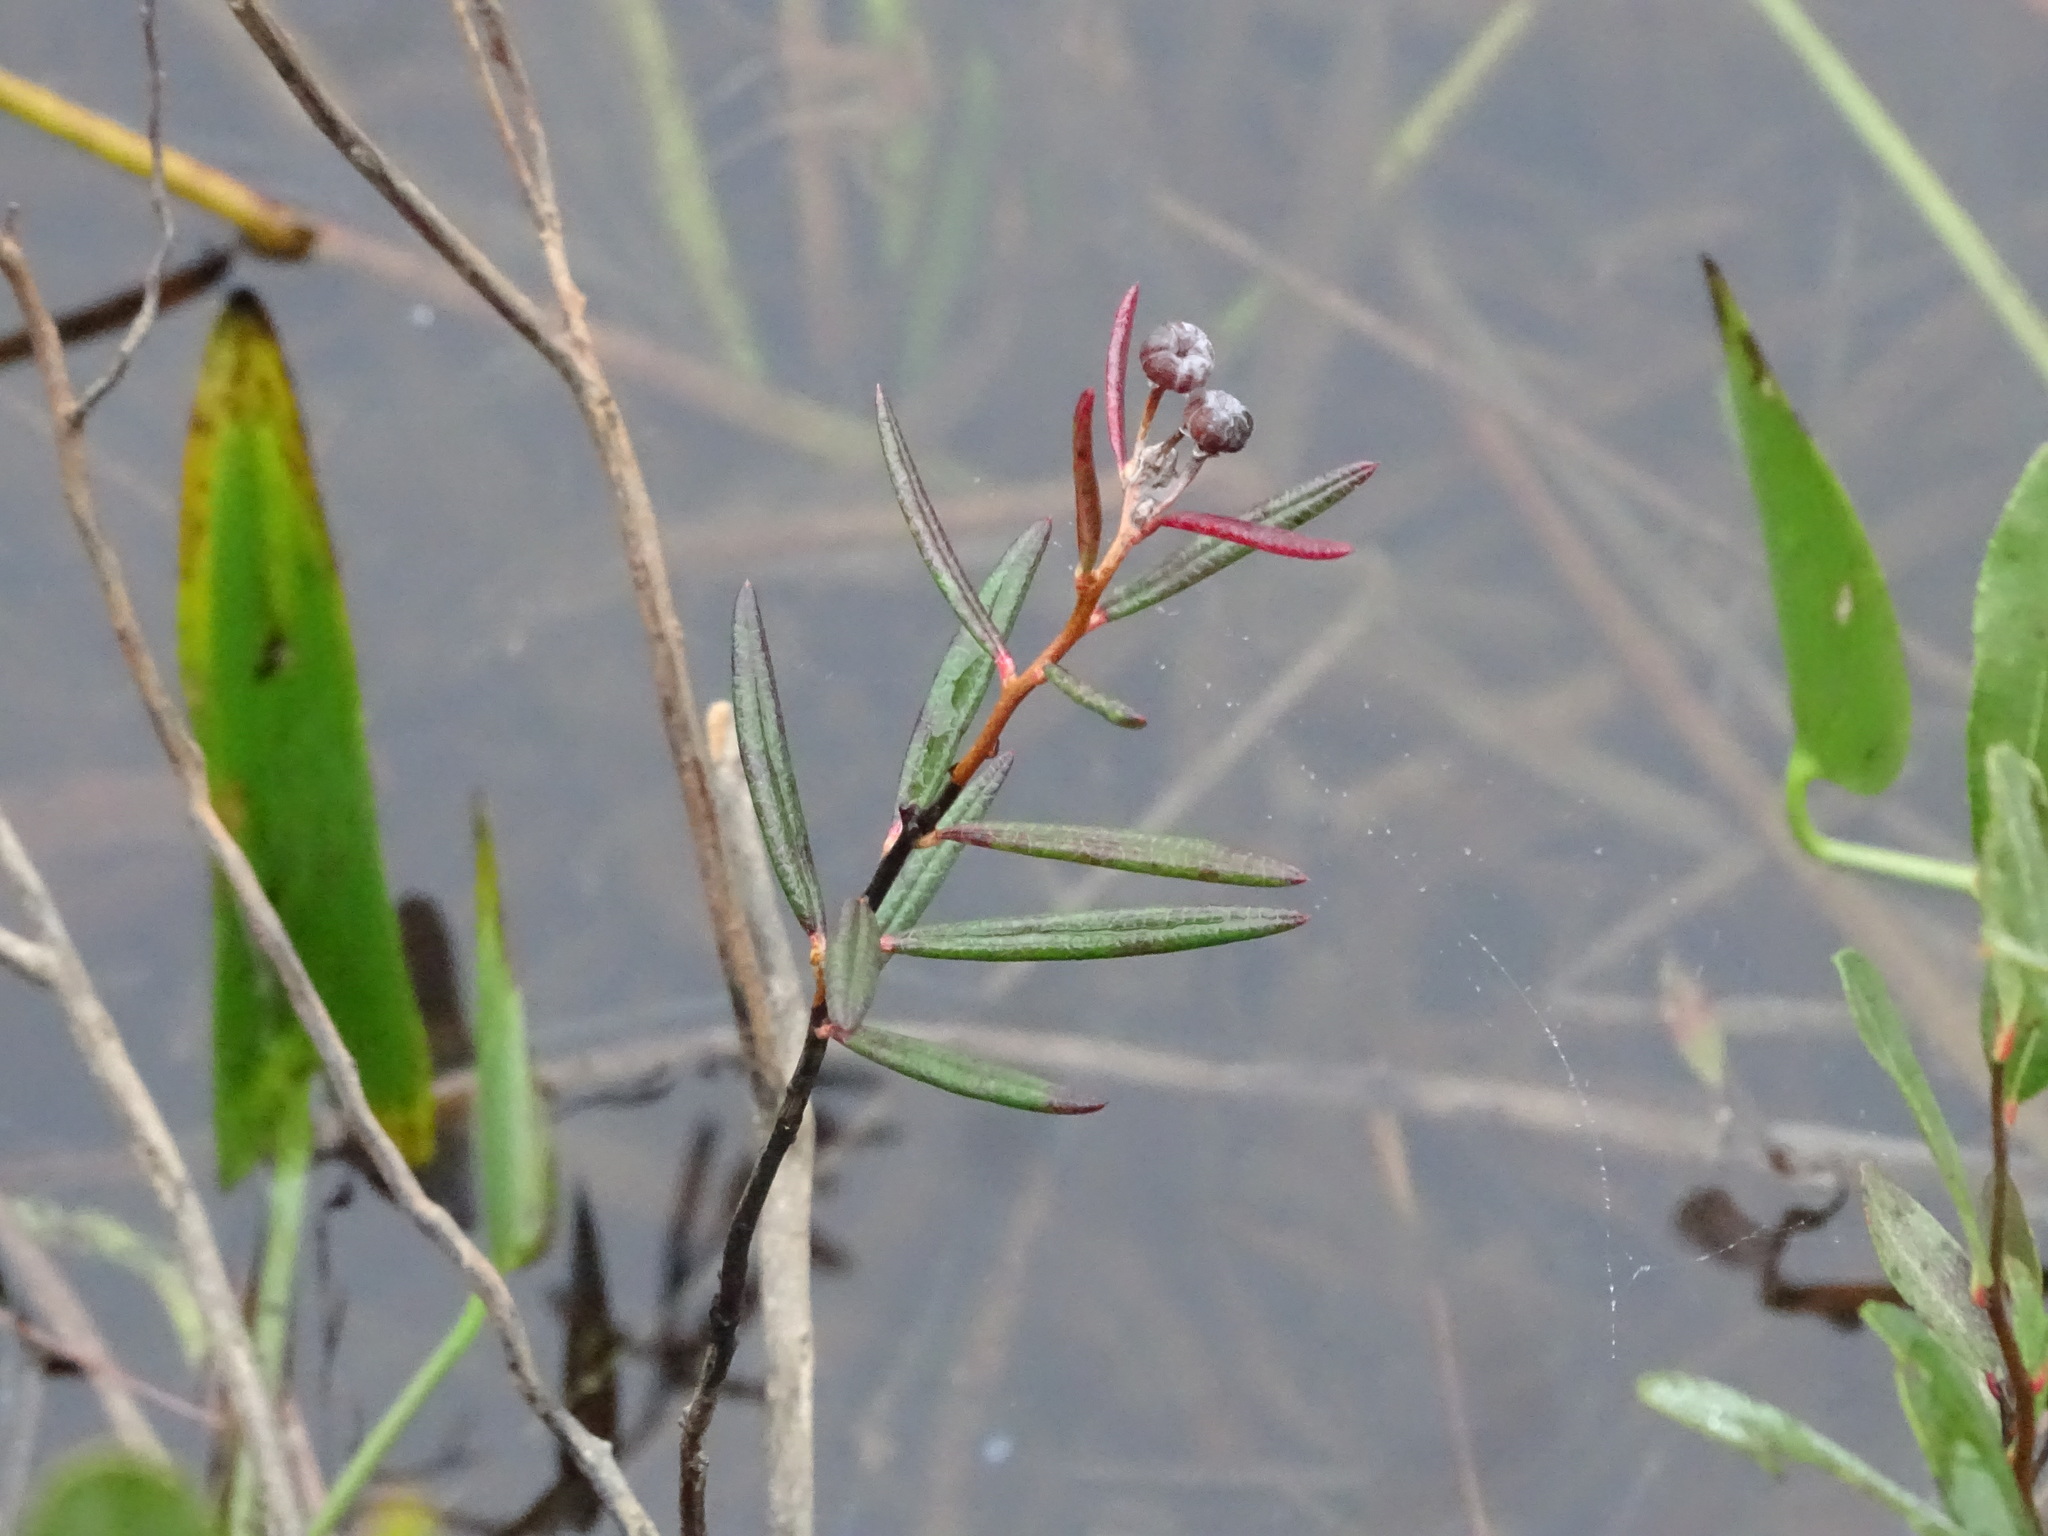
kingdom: Plantae
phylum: Tracheophyta
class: Magnoliopsida
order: Ericales
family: Ericaceae
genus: Andromeda
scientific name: Andromeda polifolia
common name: Bog-rosemary
